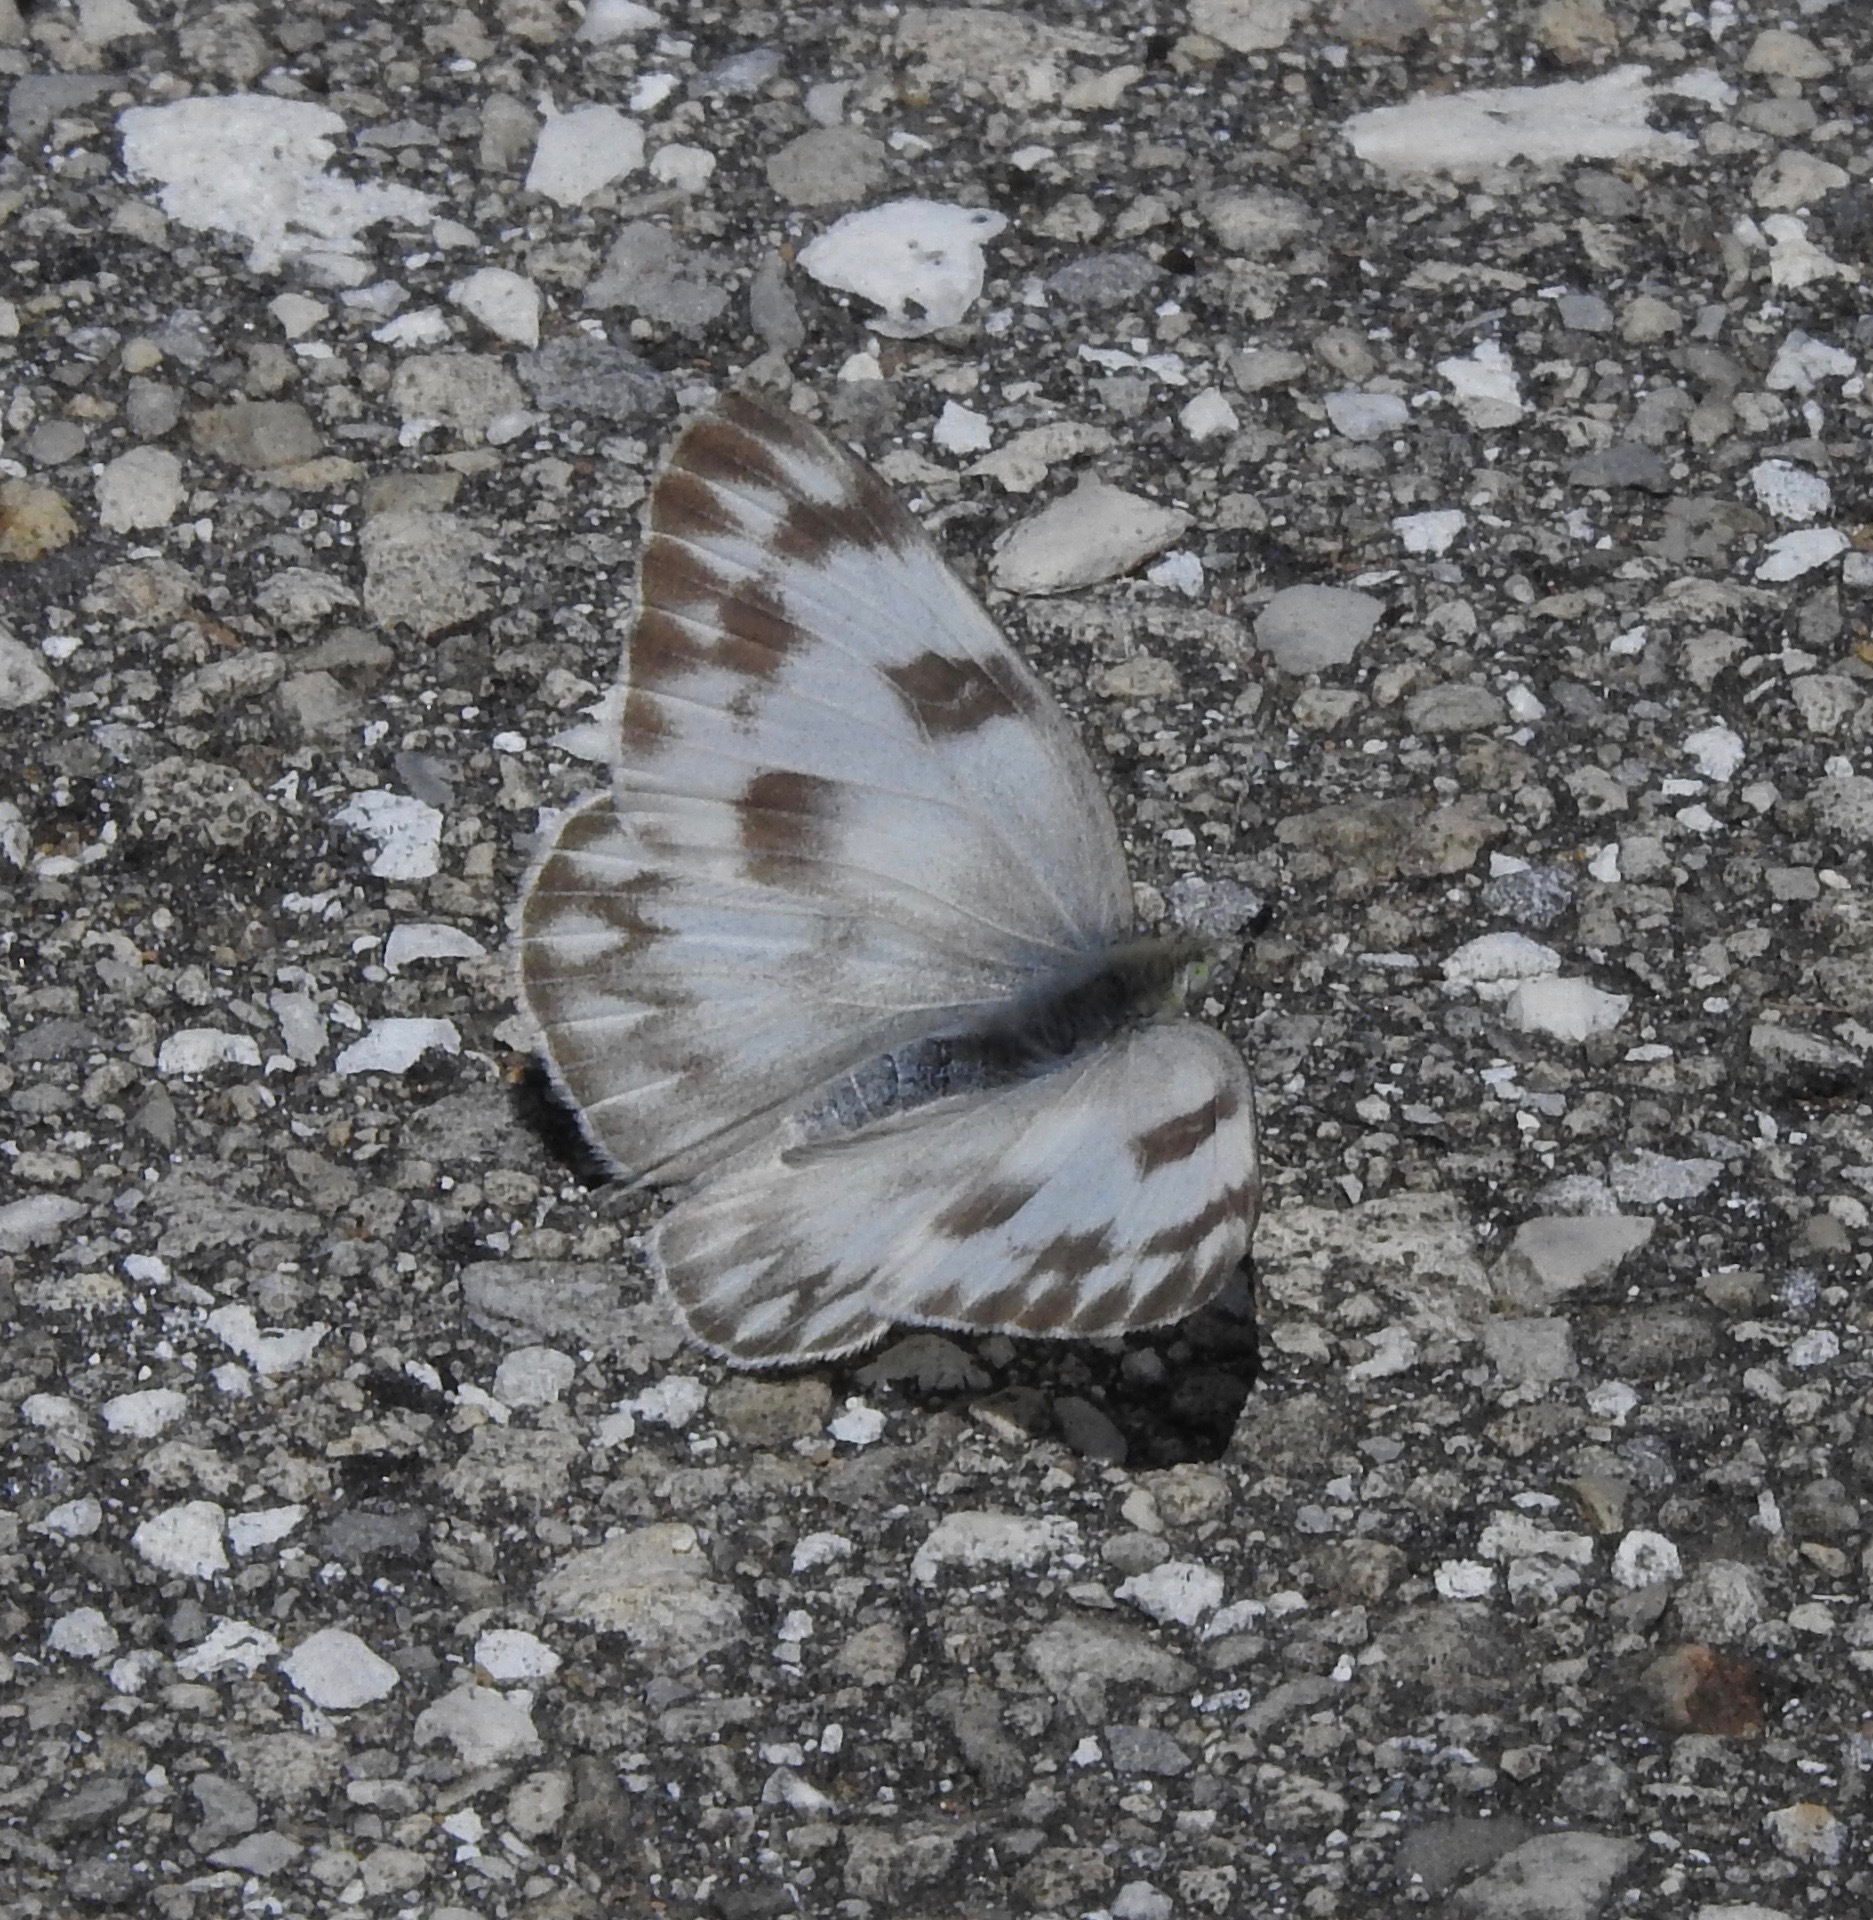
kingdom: Animalia
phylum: Arthropoda
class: Insecta
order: Lepidoptera
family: Pieridae
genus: Pontia
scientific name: Pontia protodice
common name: Checkered white
